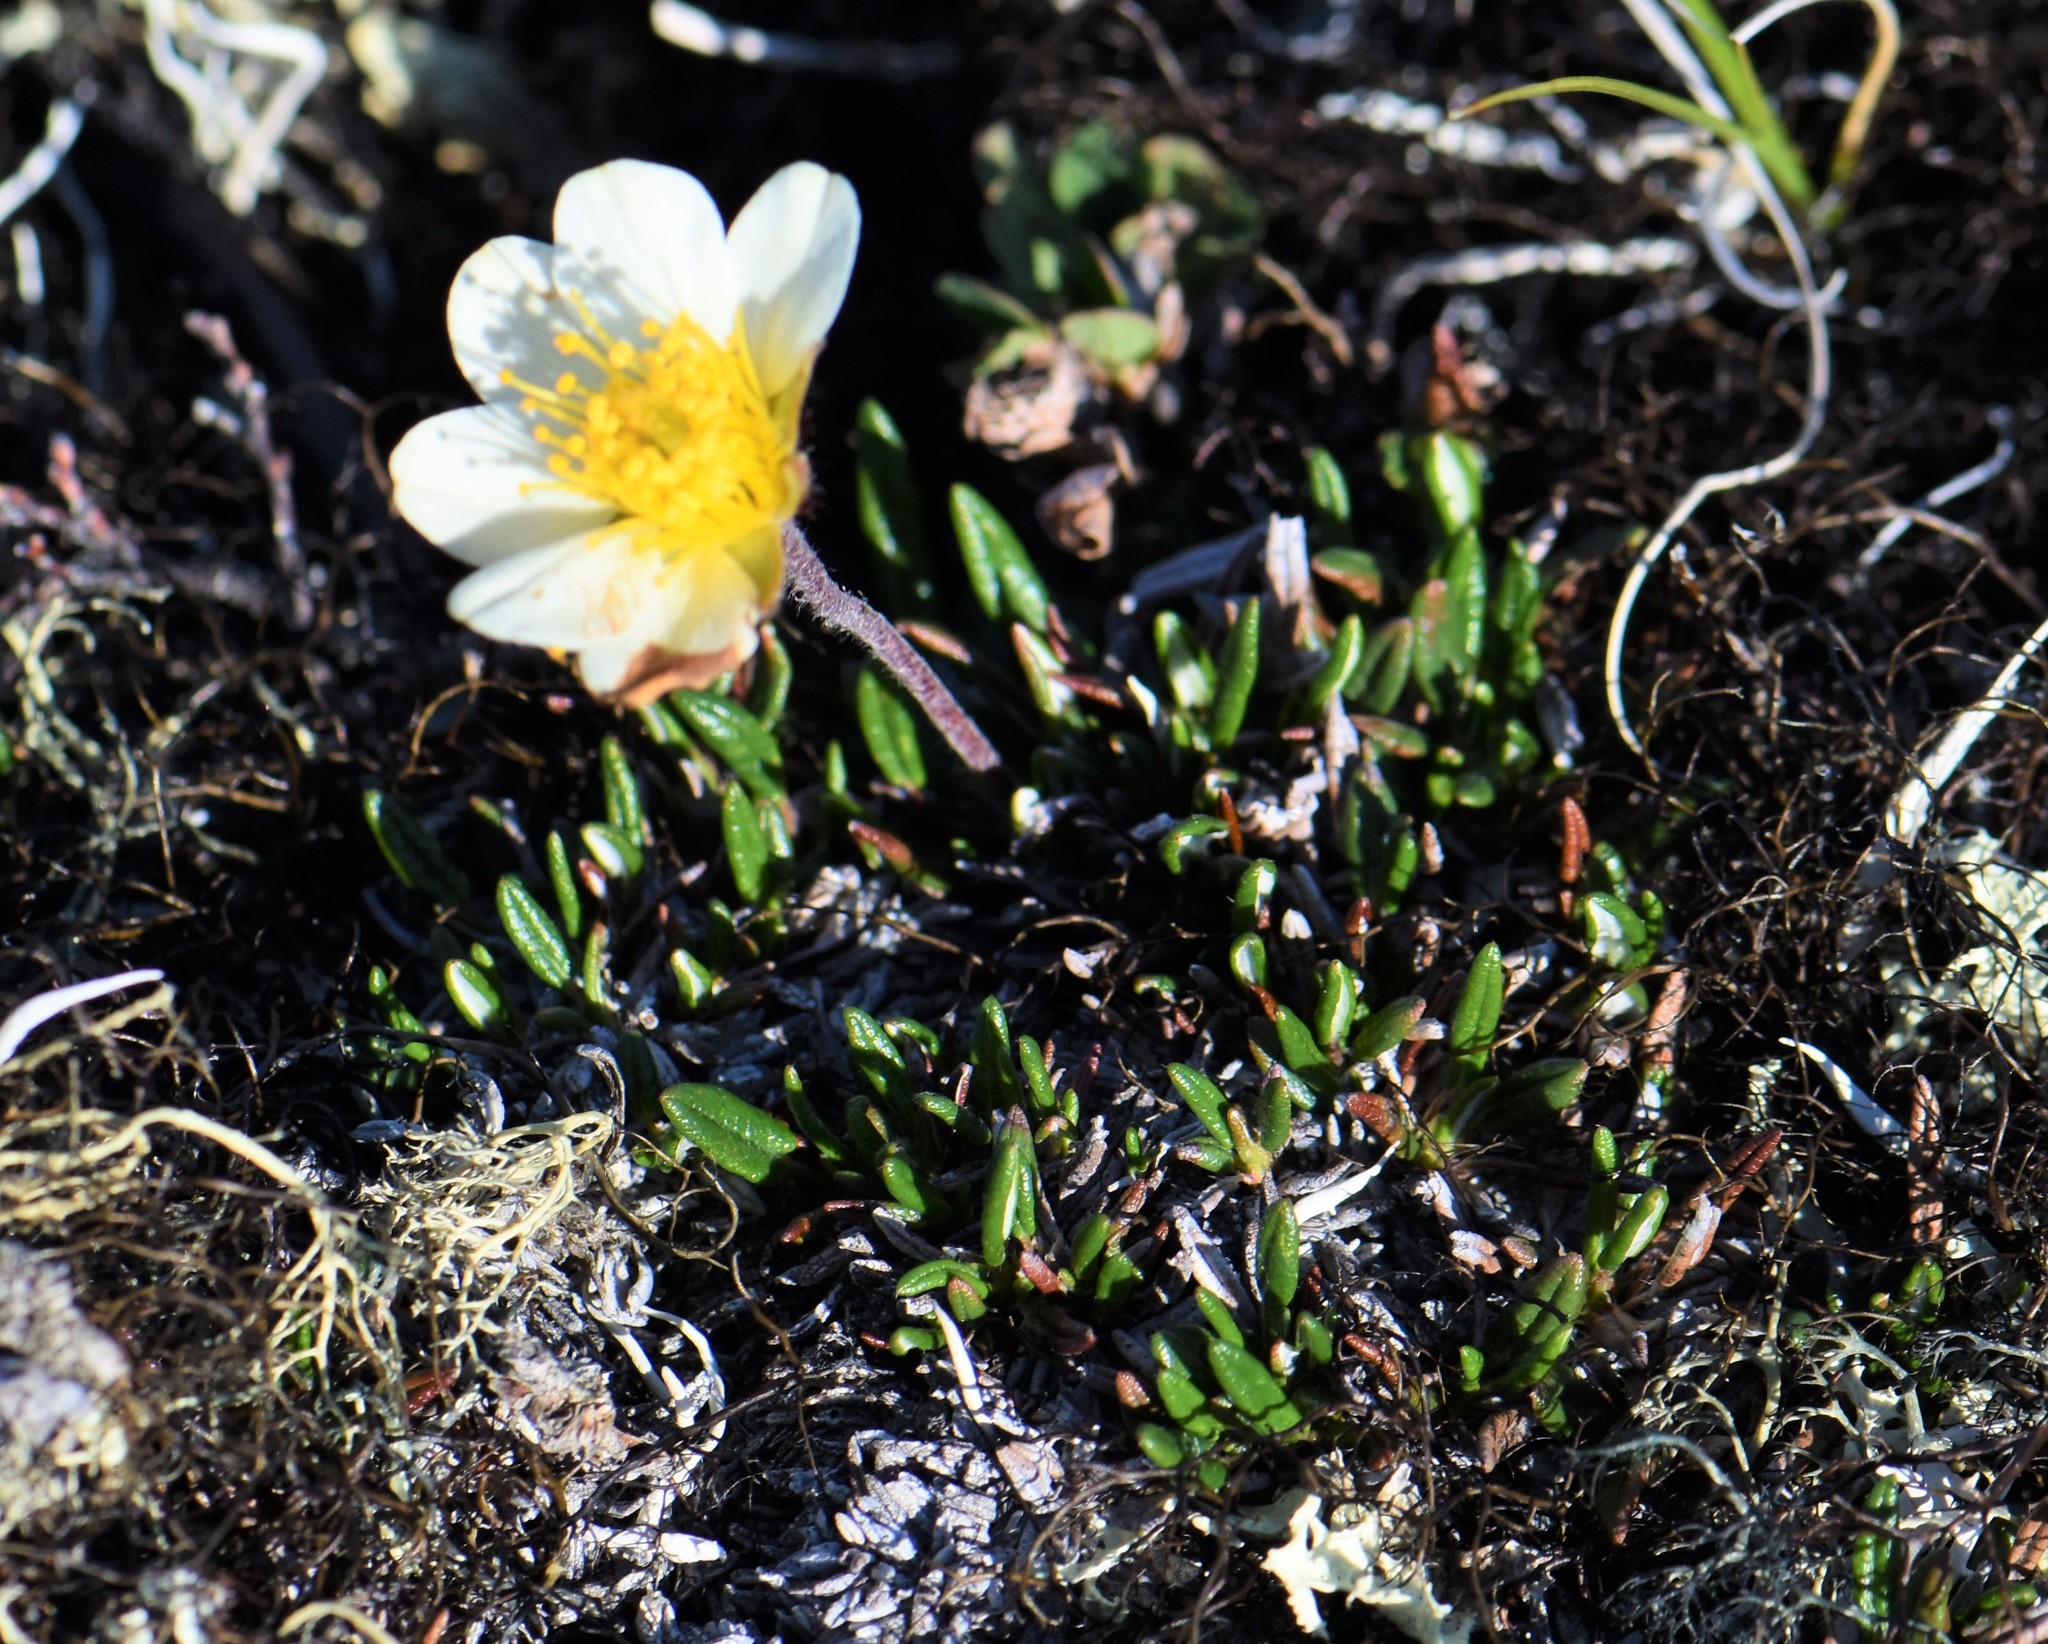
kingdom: Plantae
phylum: Tracheophyta
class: Magnoliopsida
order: Rosales
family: Rosaceae
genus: Dryas
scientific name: Dryas integrifolia
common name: Entire-leaved mountain avens
